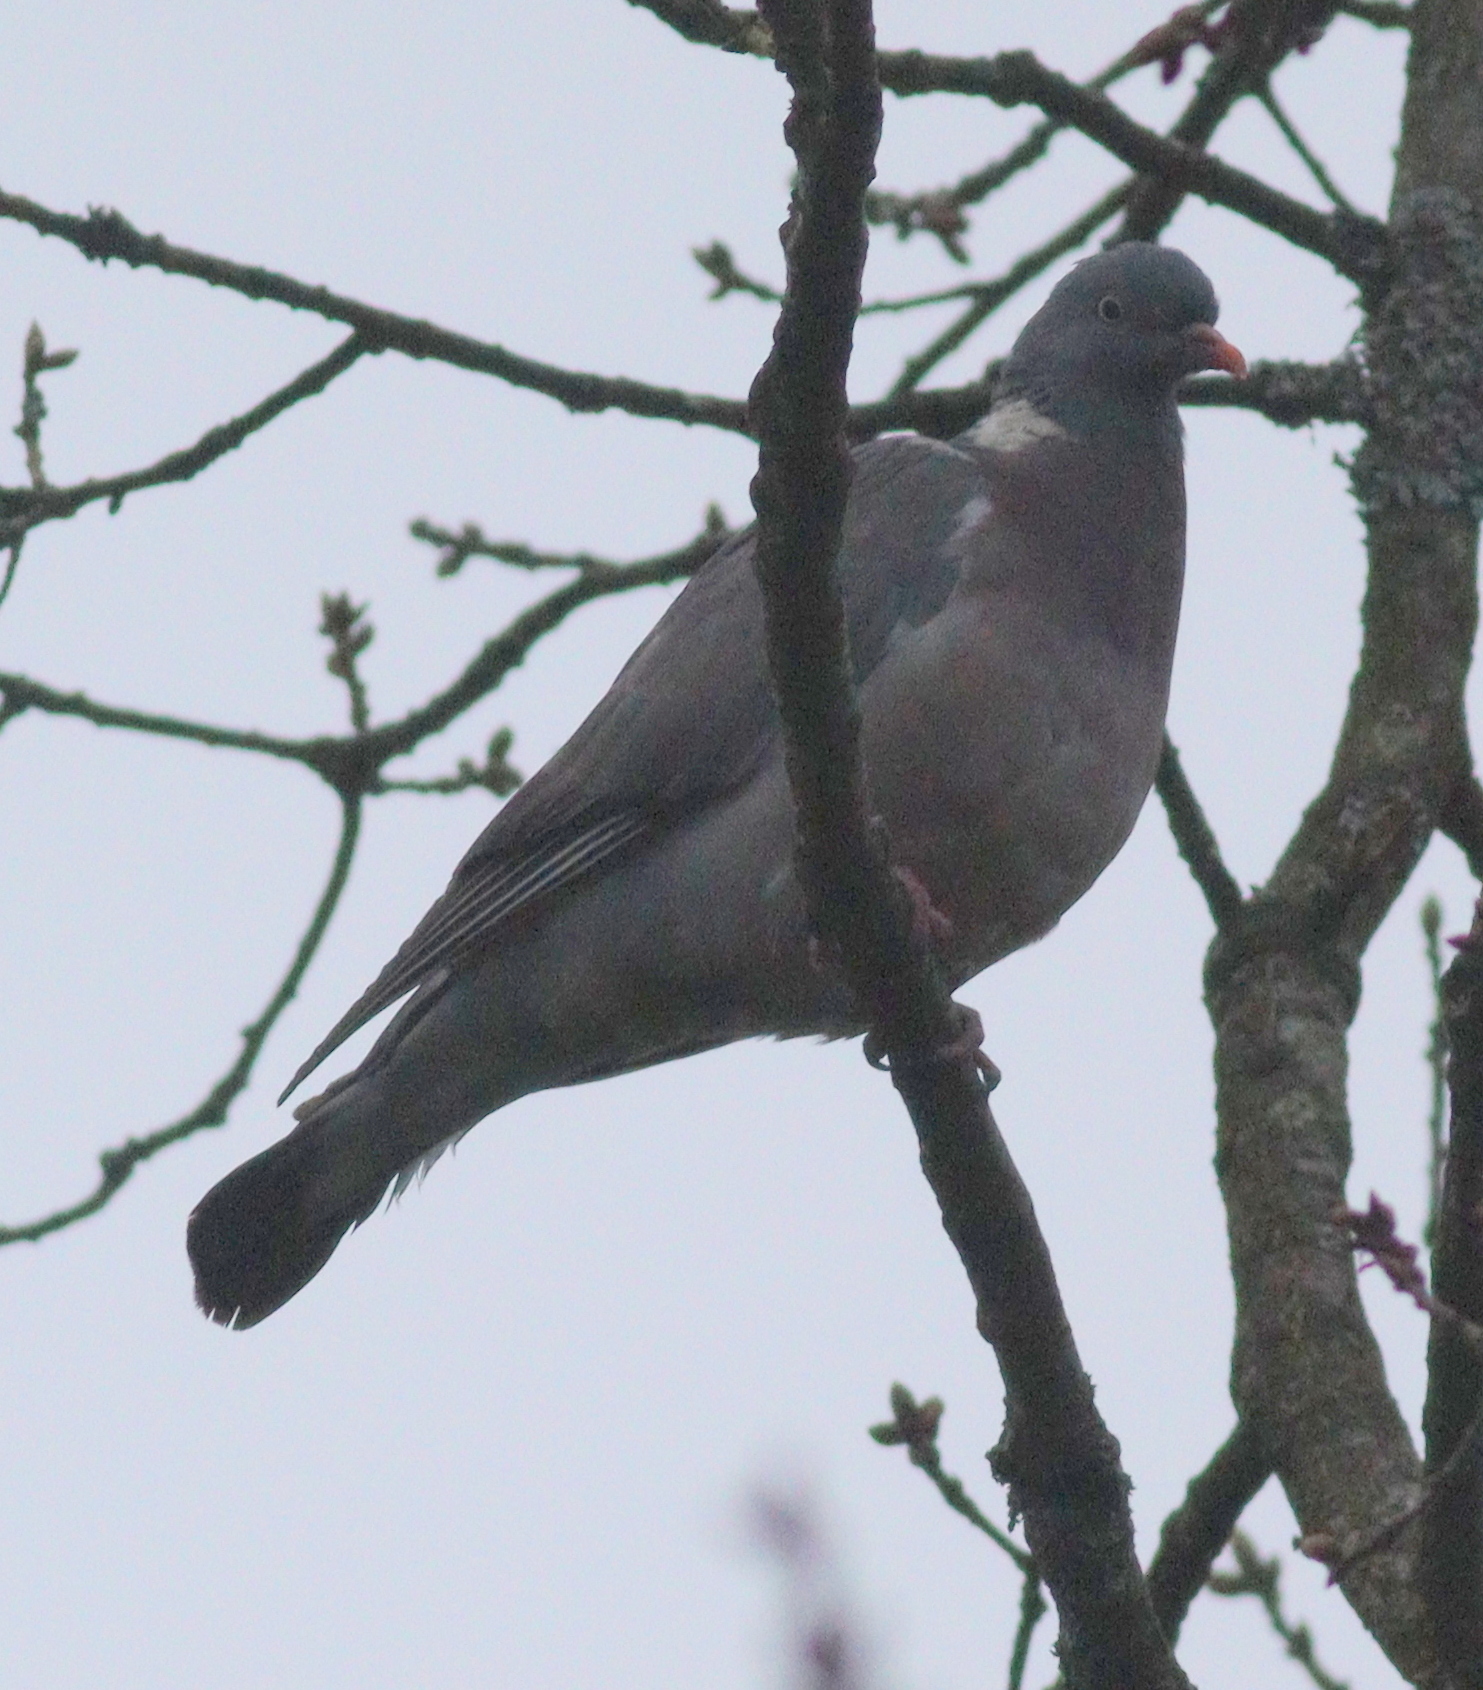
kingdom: Animalia
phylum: Chordata
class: Aves
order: Columbiformes
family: Columbidae
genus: Columba
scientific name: Columba palumbus
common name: Common wood pigeon
